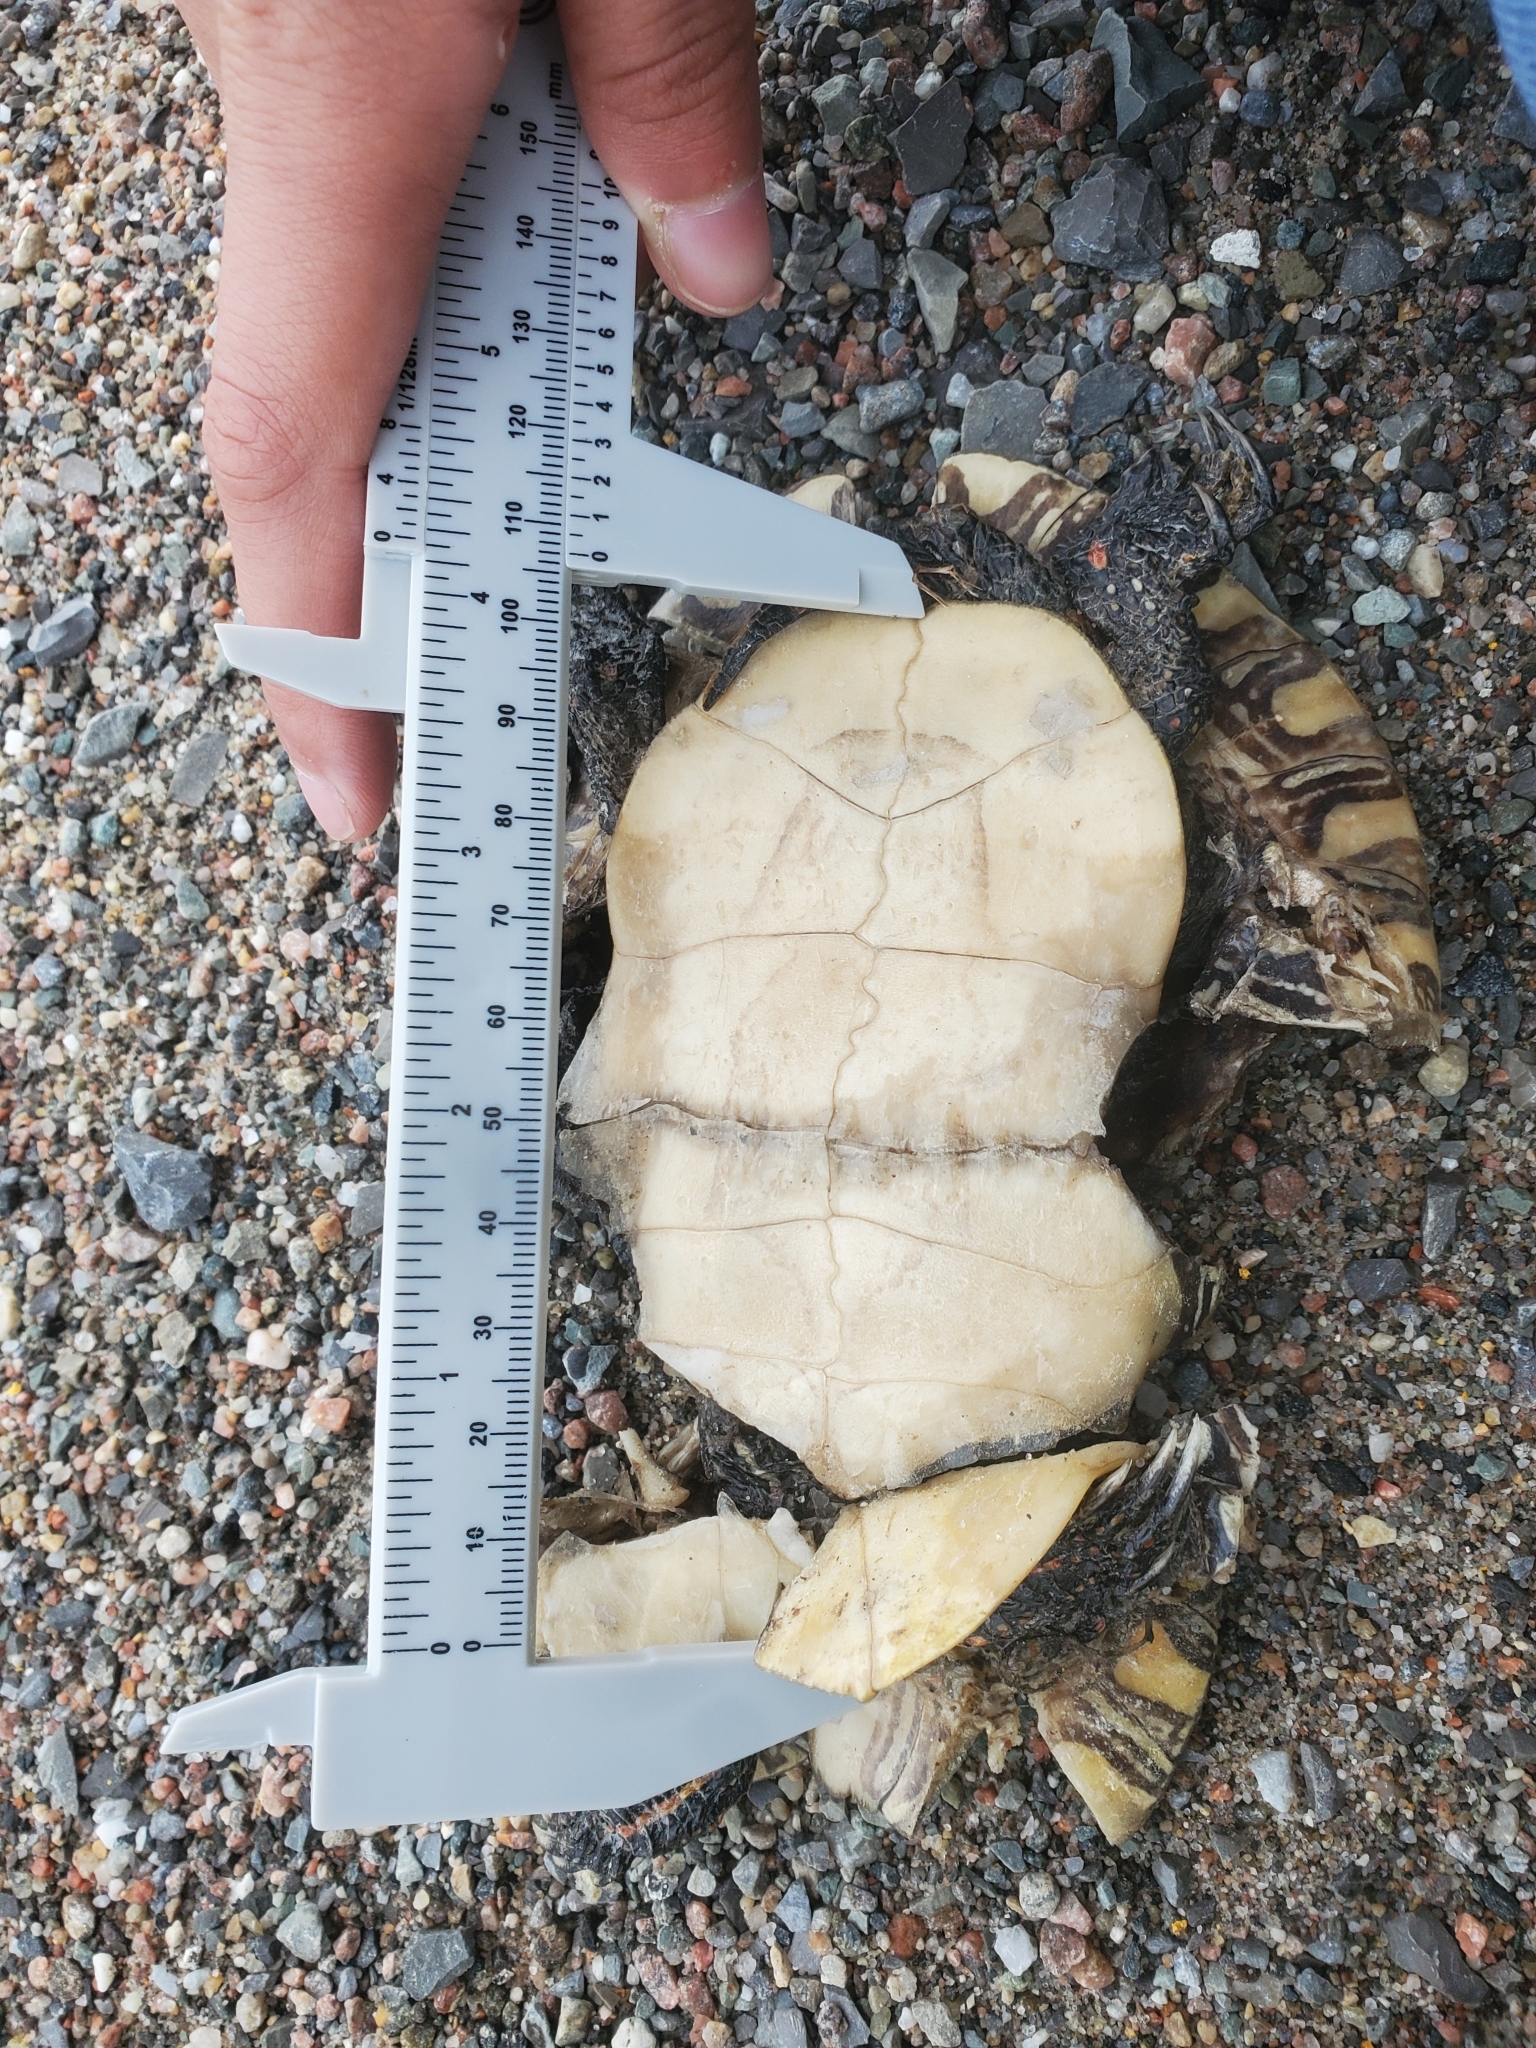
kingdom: Animalia
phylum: Chordata
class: Testudines
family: Emydidae
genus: Chrysemys
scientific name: Chrysemys picta
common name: Painted turtle
